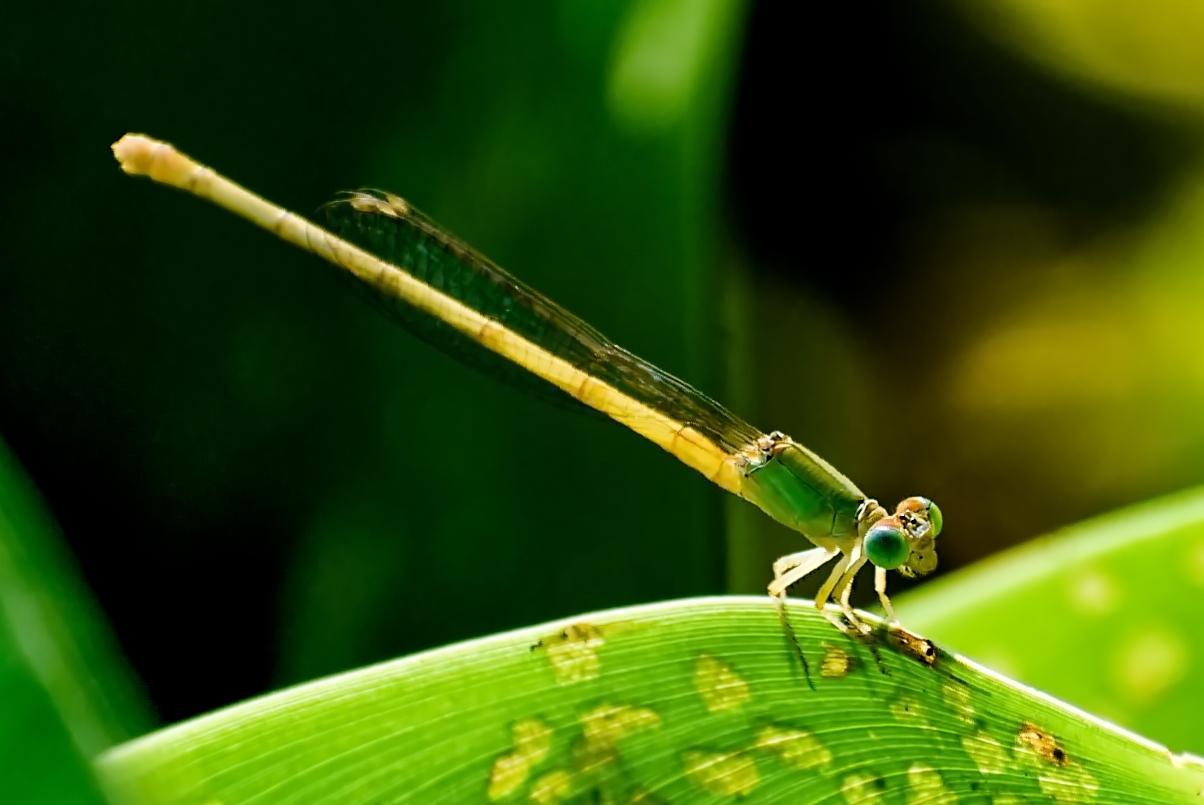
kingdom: Animalia
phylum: Arthropoda
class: Insecta
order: Odonata
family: Coenagrionidae
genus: Ceriagrion
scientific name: Ceriagrion coromandelianum
